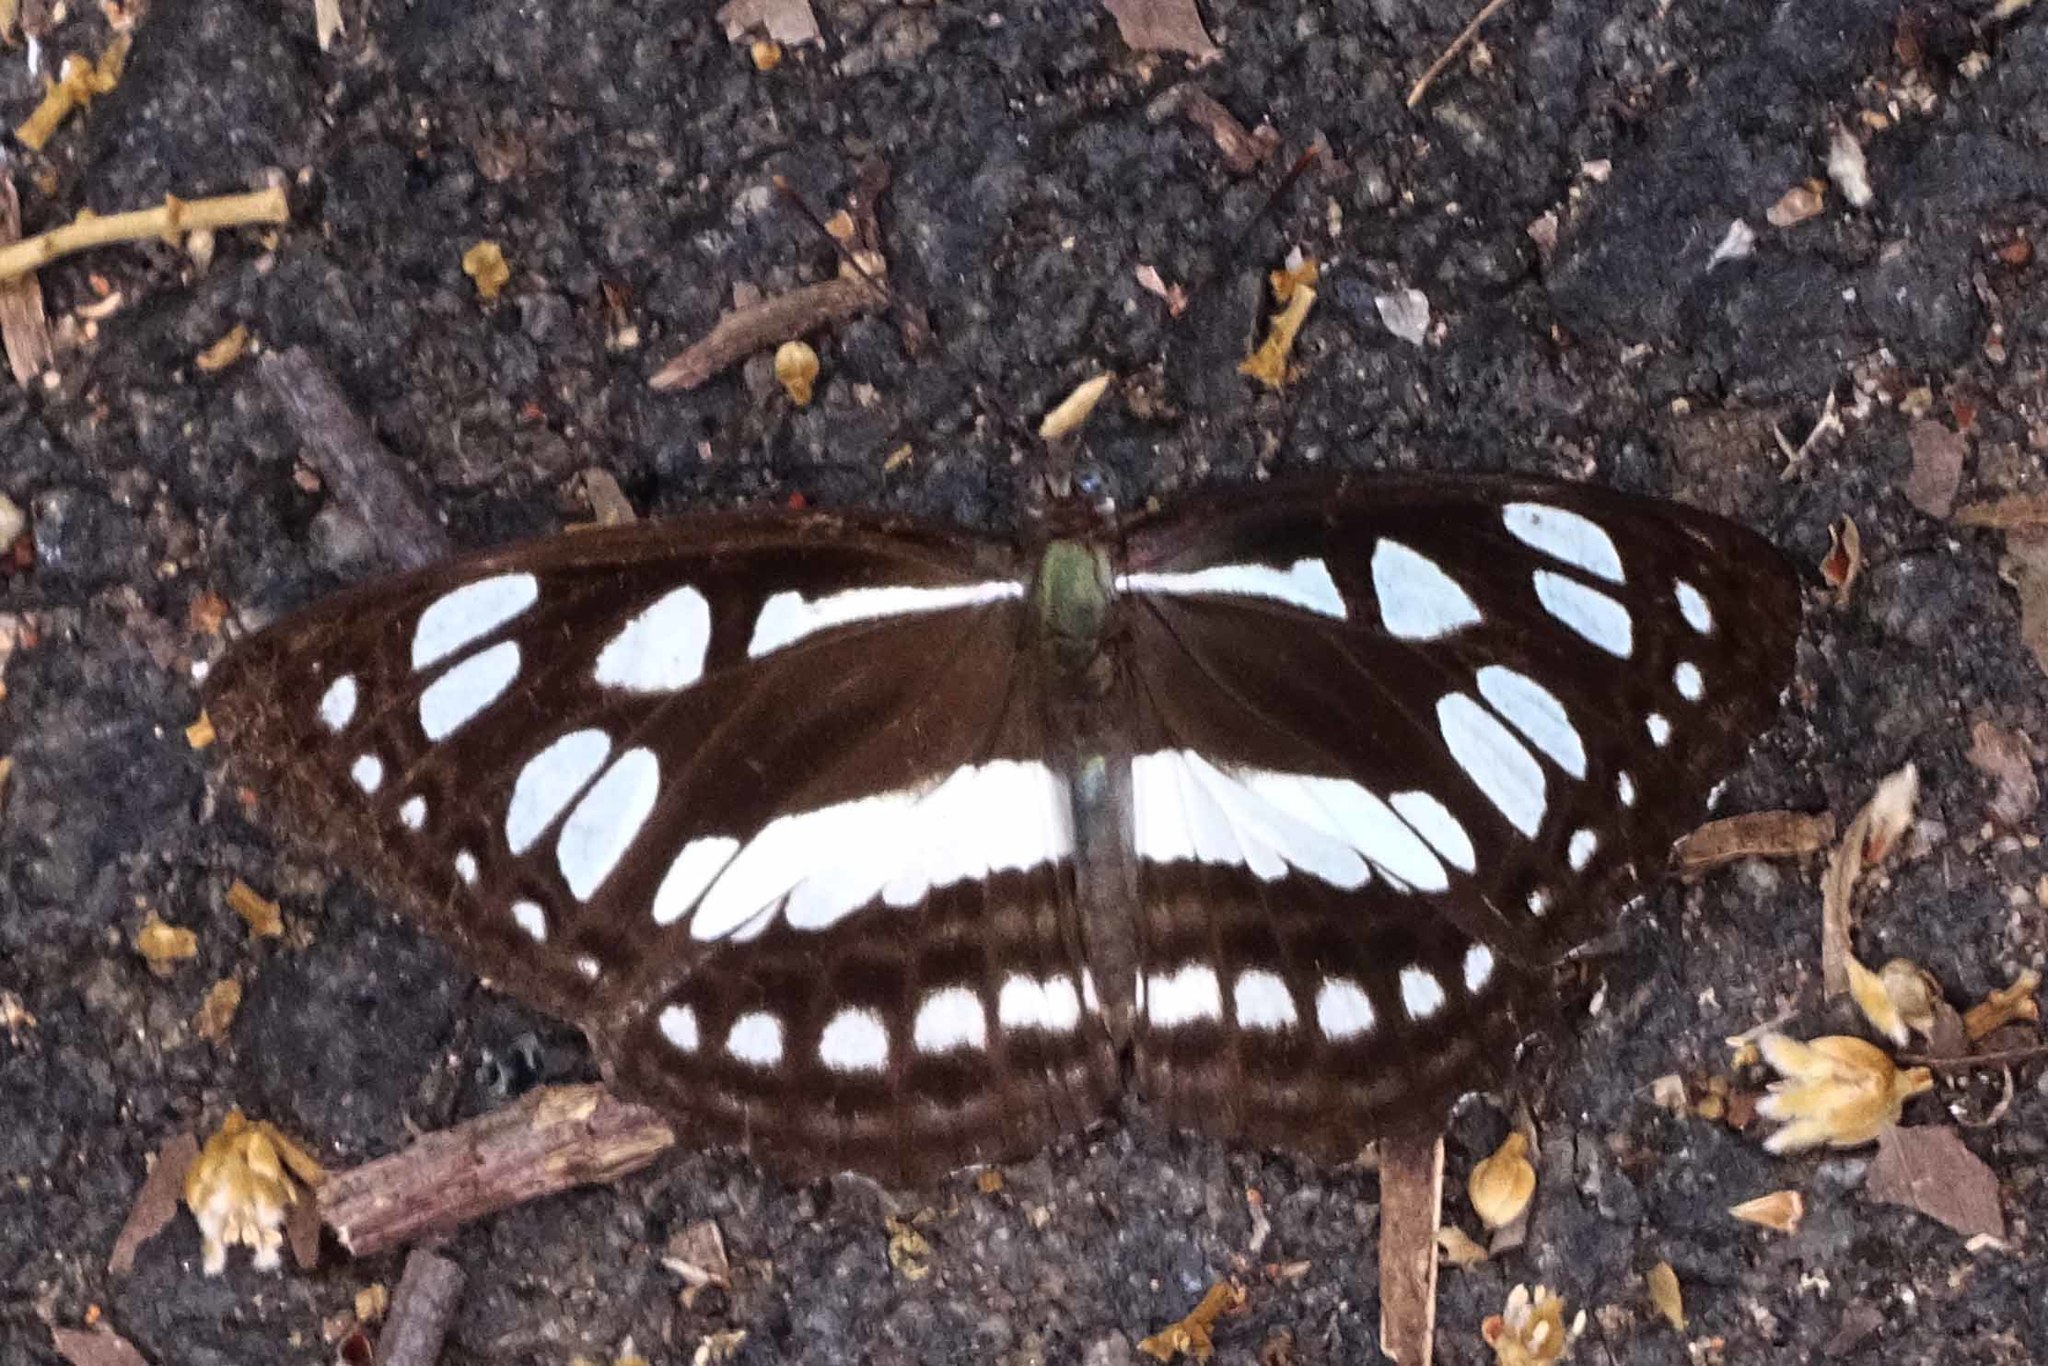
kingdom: Animalia
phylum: Arthropoda
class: Insecta
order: Lepidoptera
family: Nymphalidae
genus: Phaedyma
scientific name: Phaedyma columella
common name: Short banded sailer
